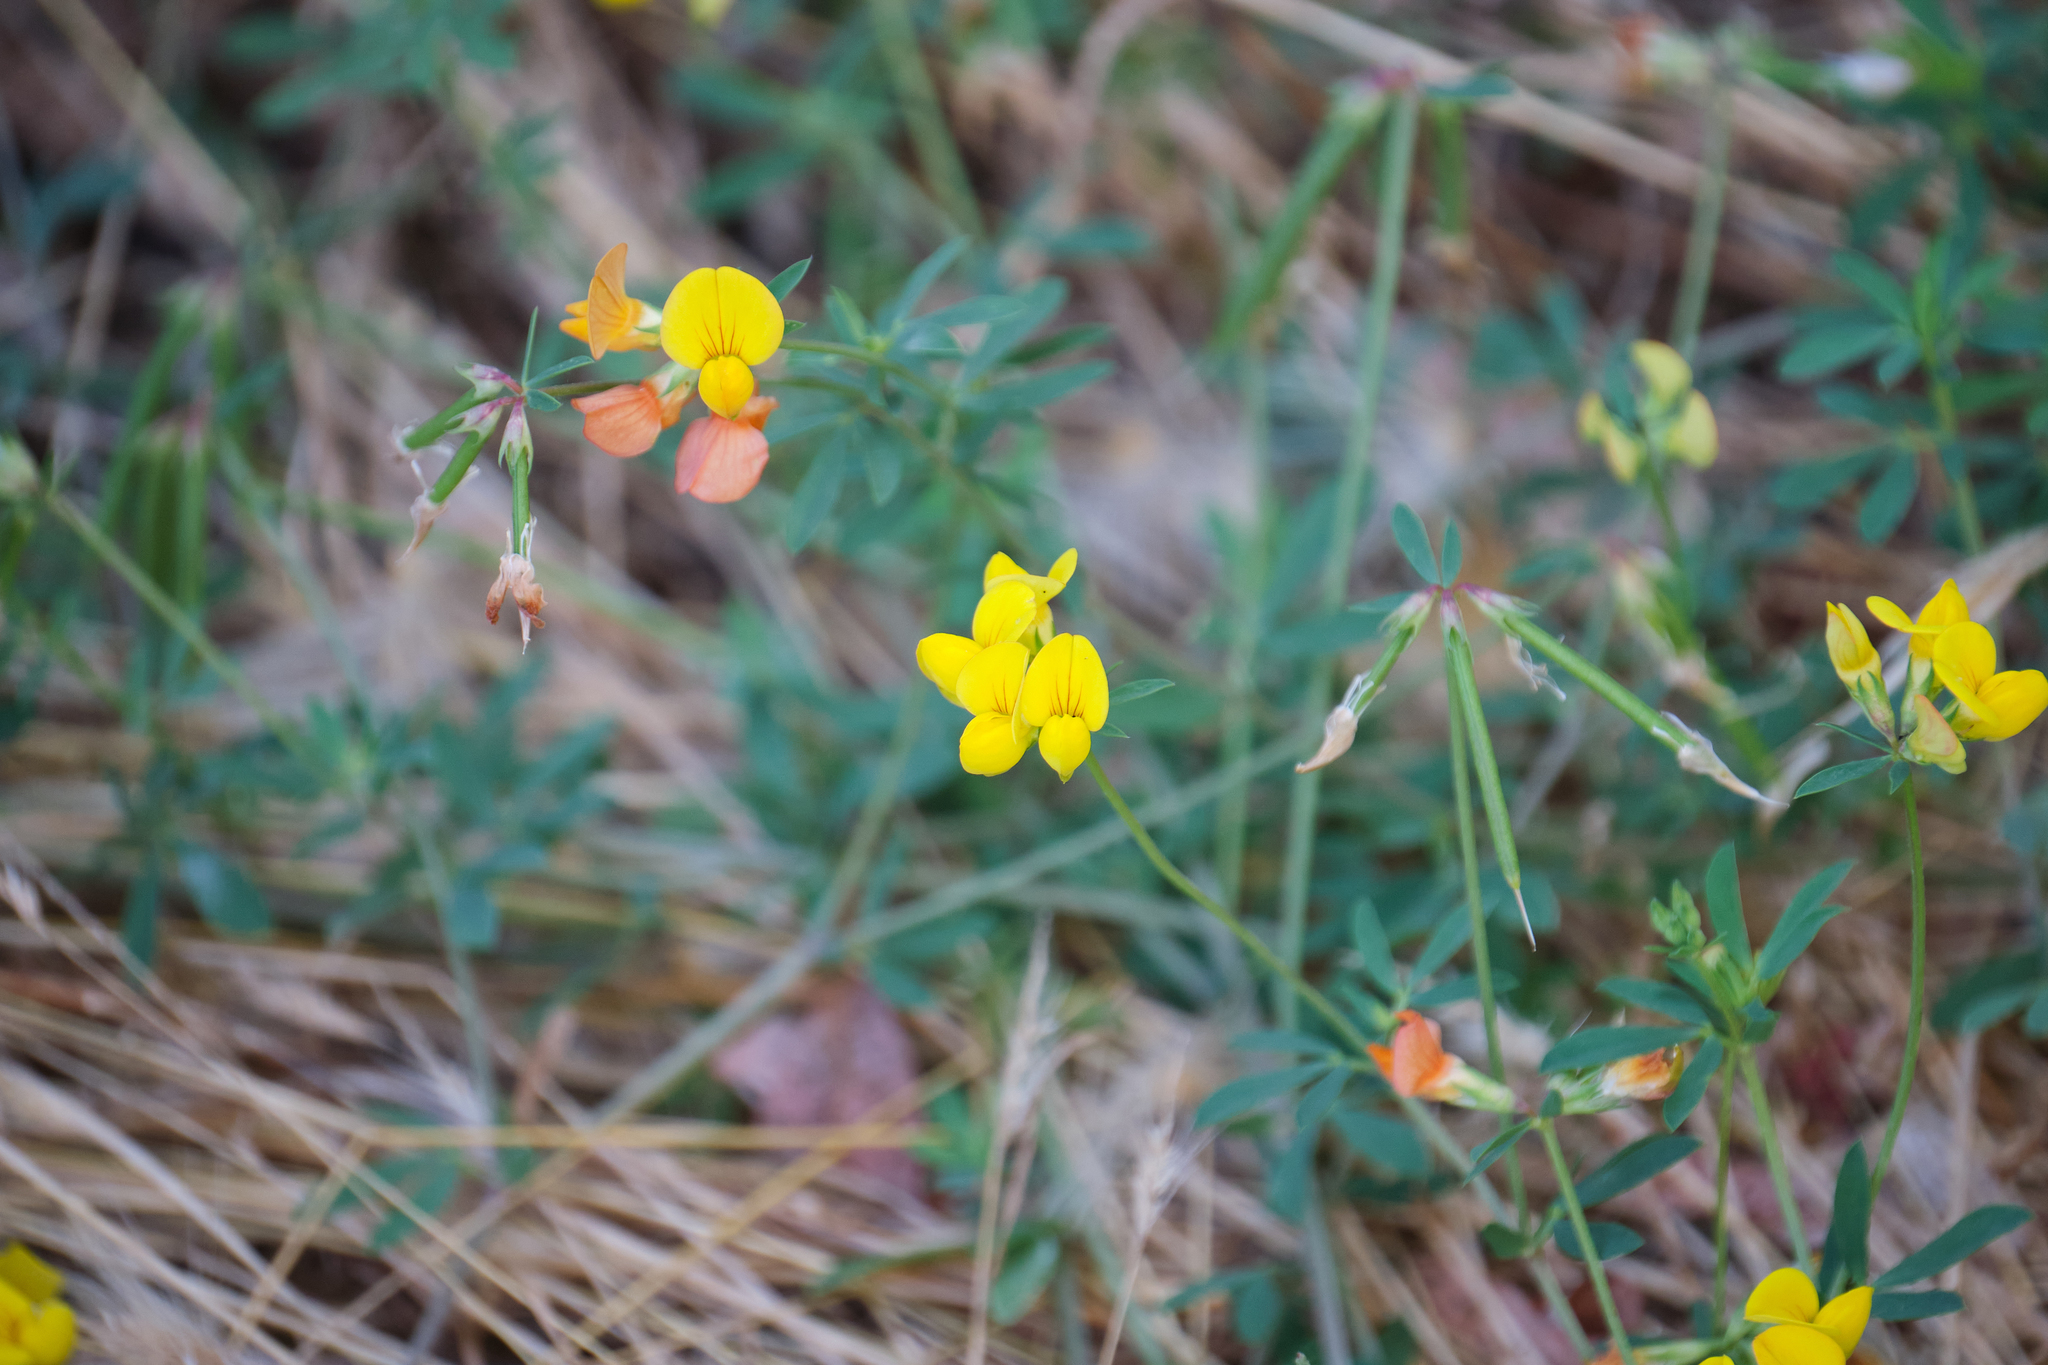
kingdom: Plantae
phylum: Tracheophyta
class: Magnoliopsida
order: Fabales
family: Fabaceae
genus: Lotus
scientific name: Lotus corniculatus
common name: Common bird's-foot-trefoil
